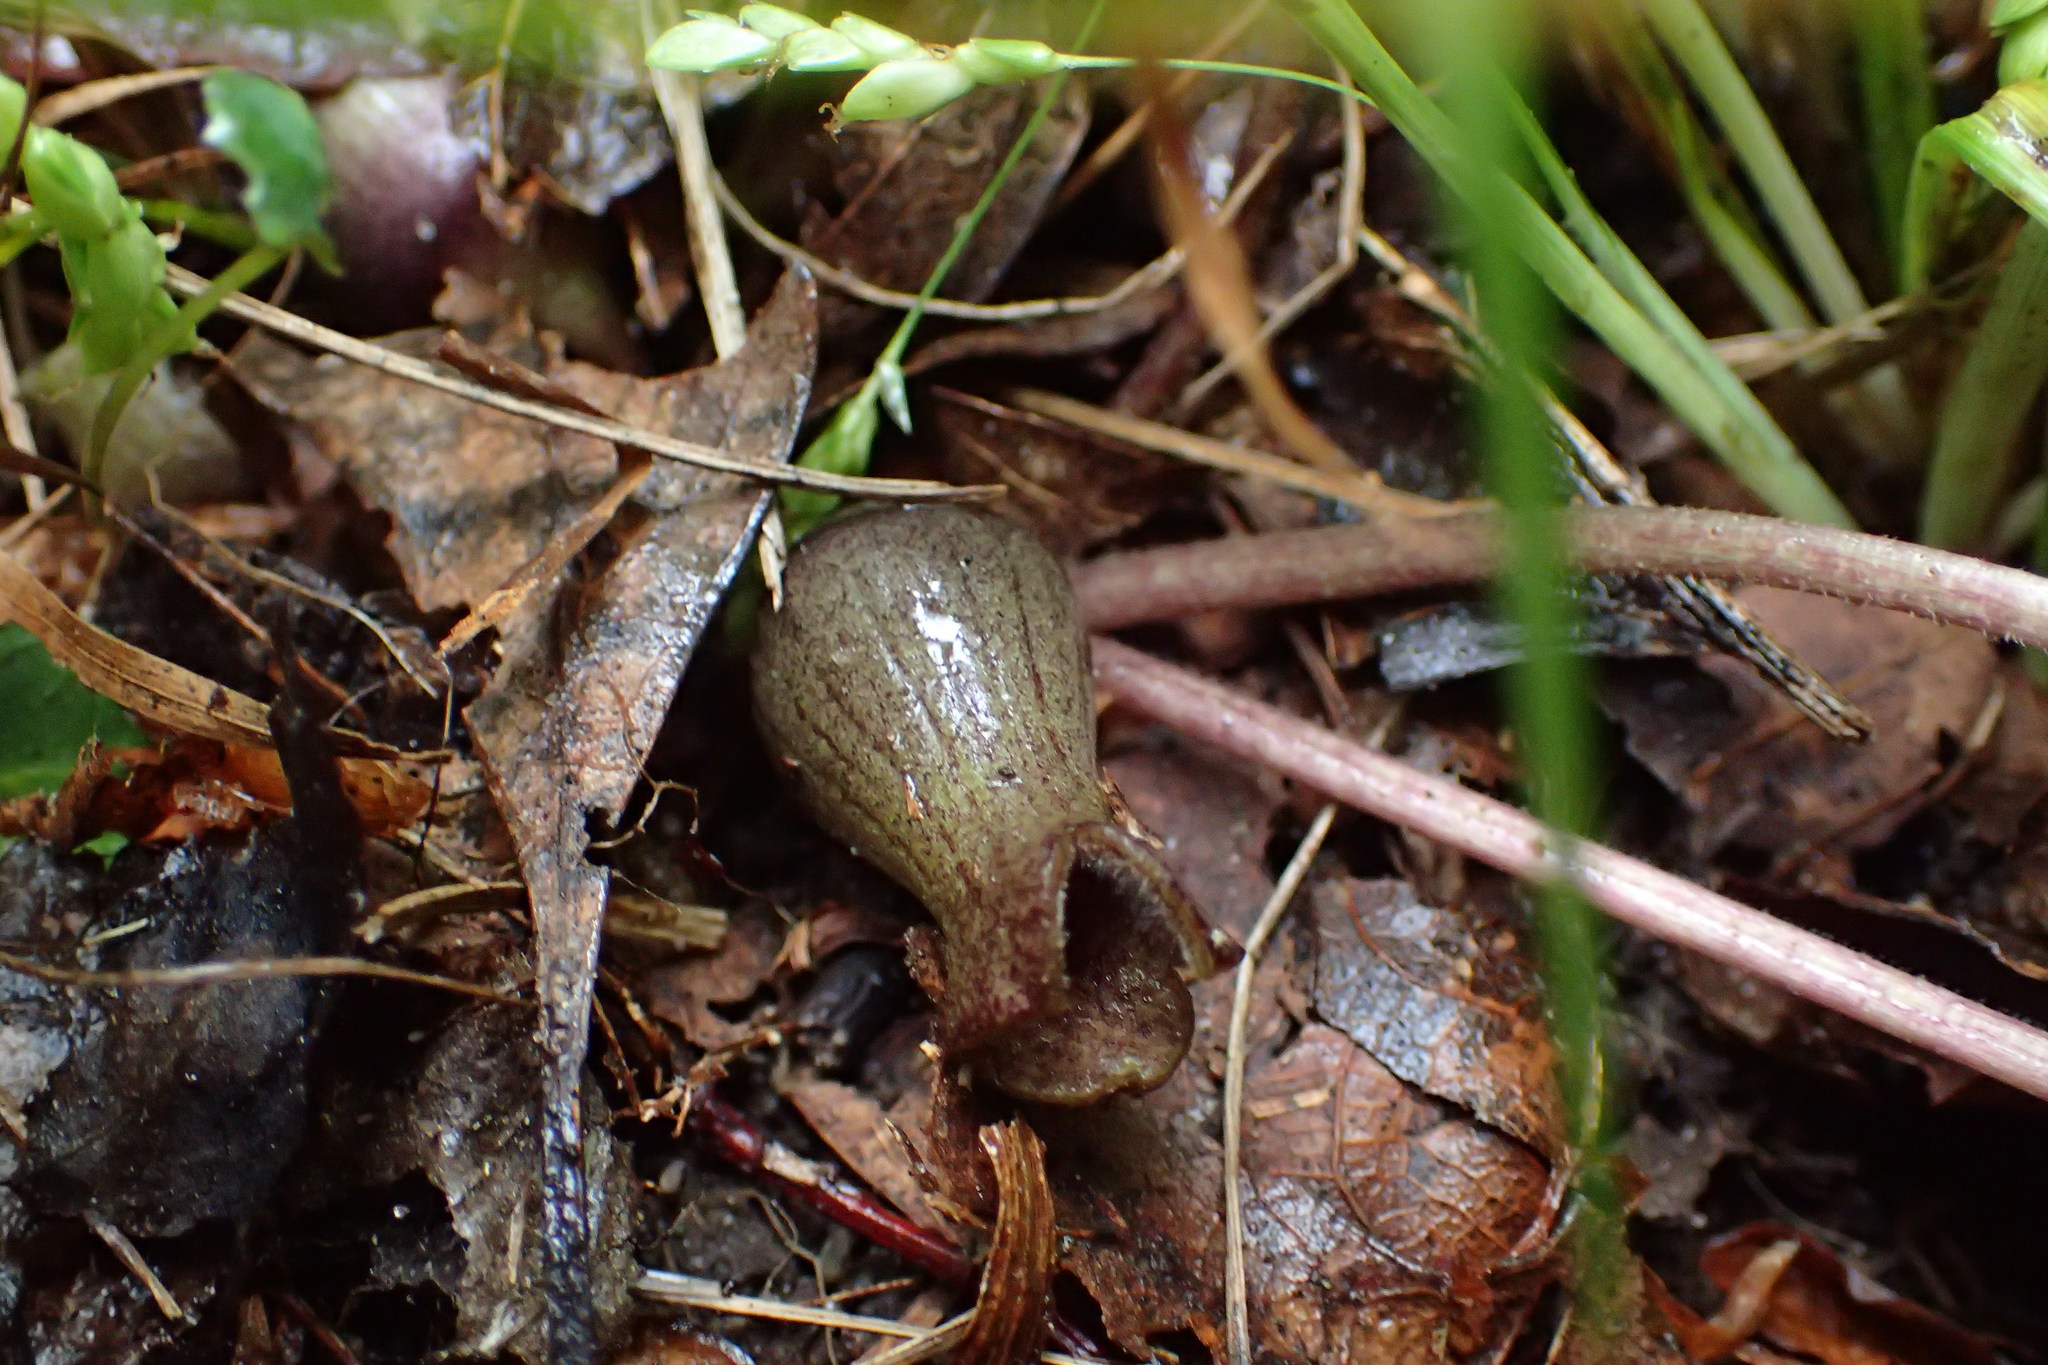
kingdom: Plantae
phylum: Tracheophyta
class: Magnoliopsida
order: Piperales
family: Aristolochiaceae
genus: Hexastylis
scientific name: Hexastylis arifolia
